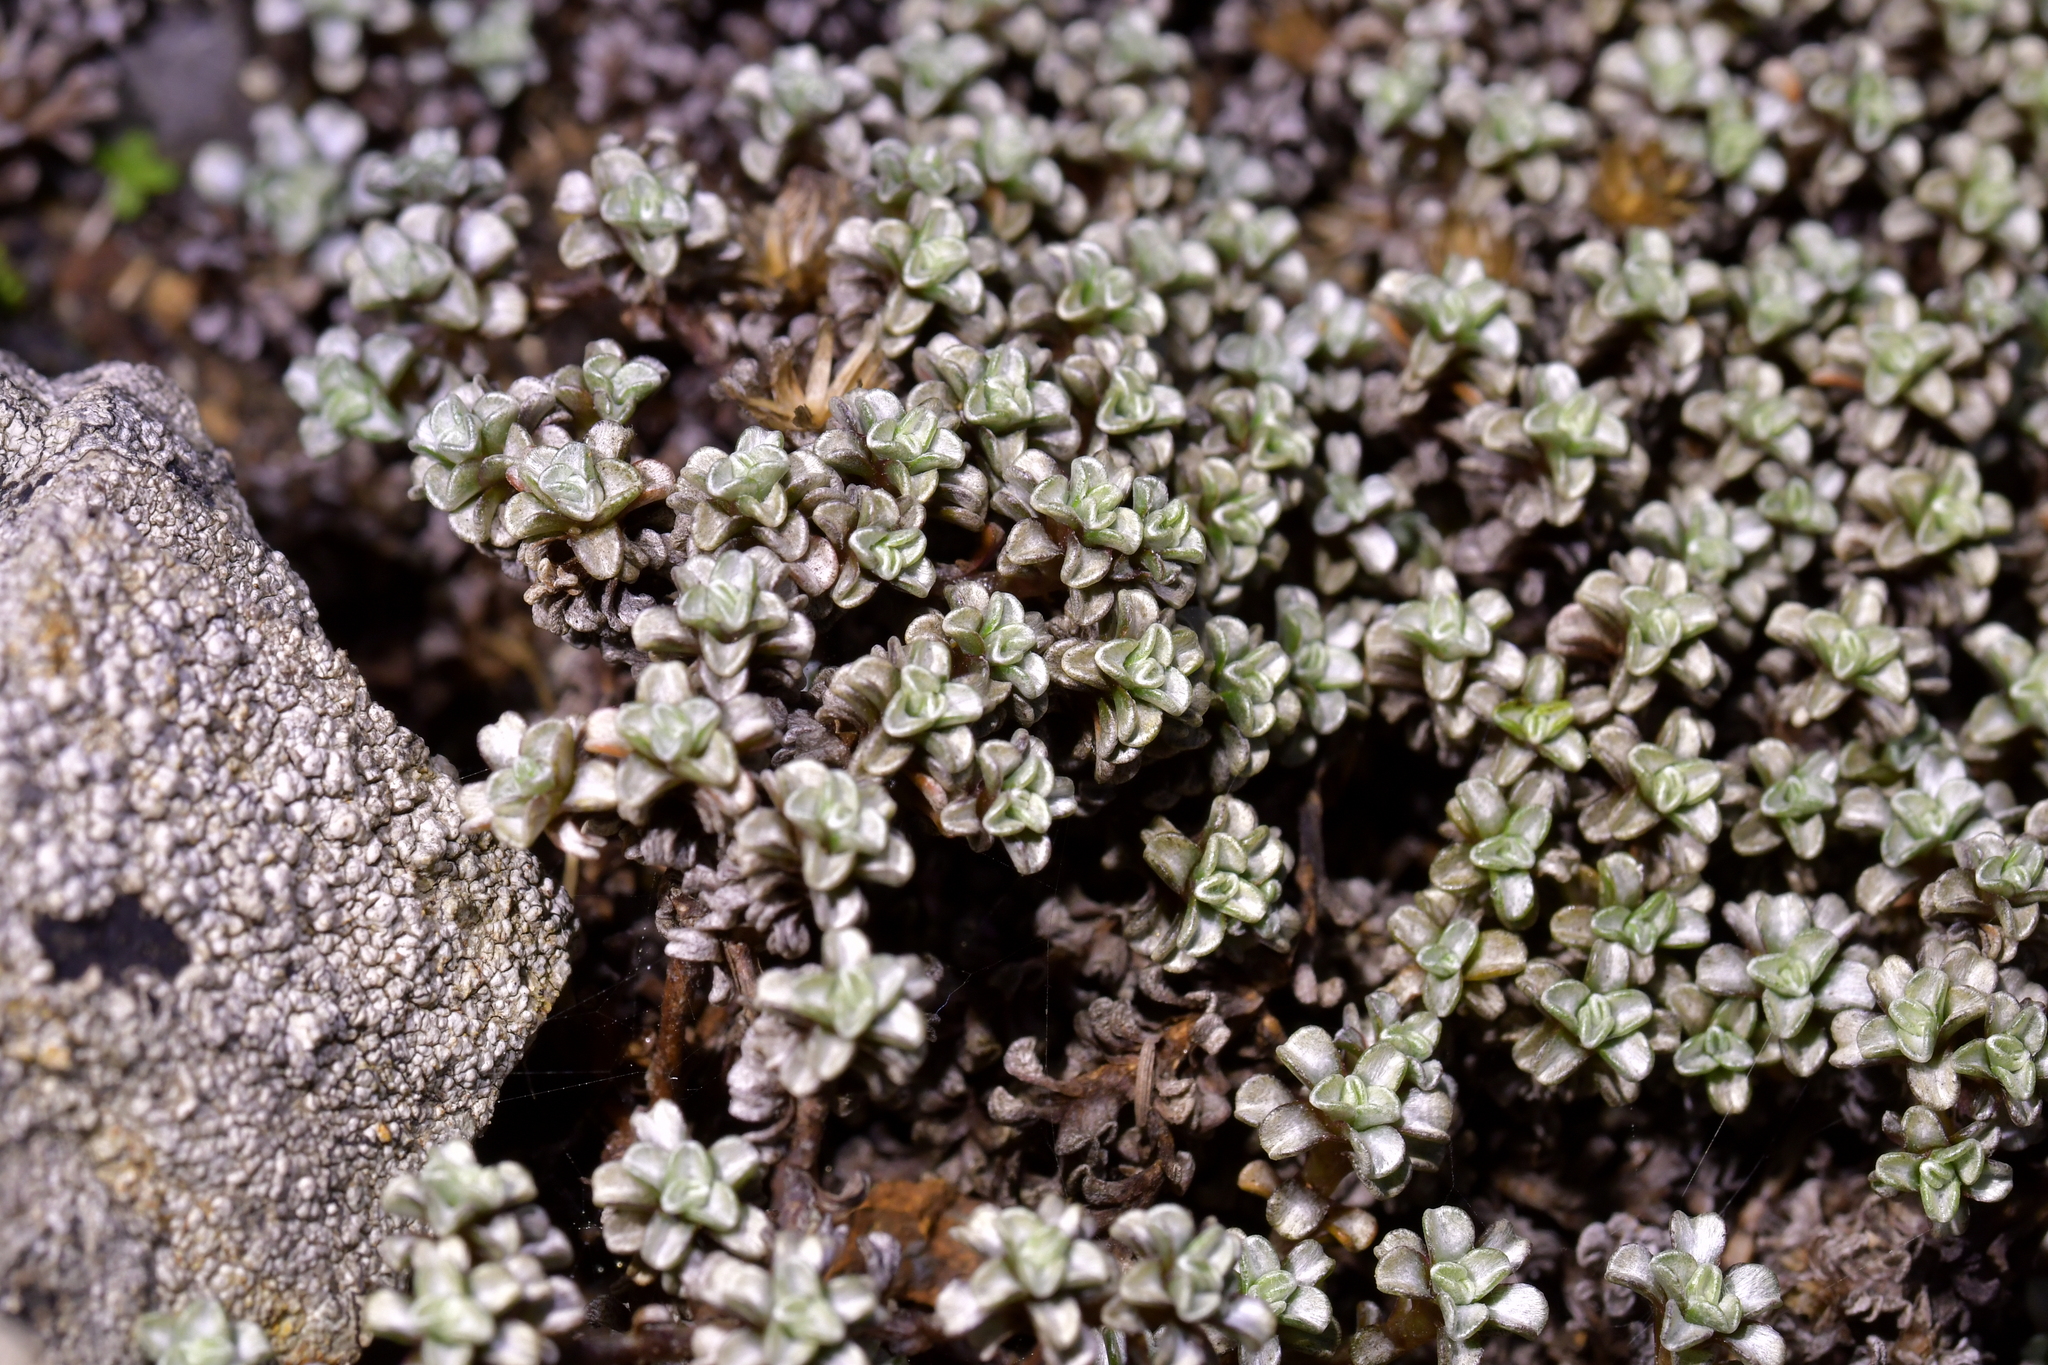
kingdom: Plantae
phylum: Tracheophyta
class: Magnoliopsida
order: Asterales
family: Asteraceae
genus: Raoulia
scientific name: Raoulia hookeri
